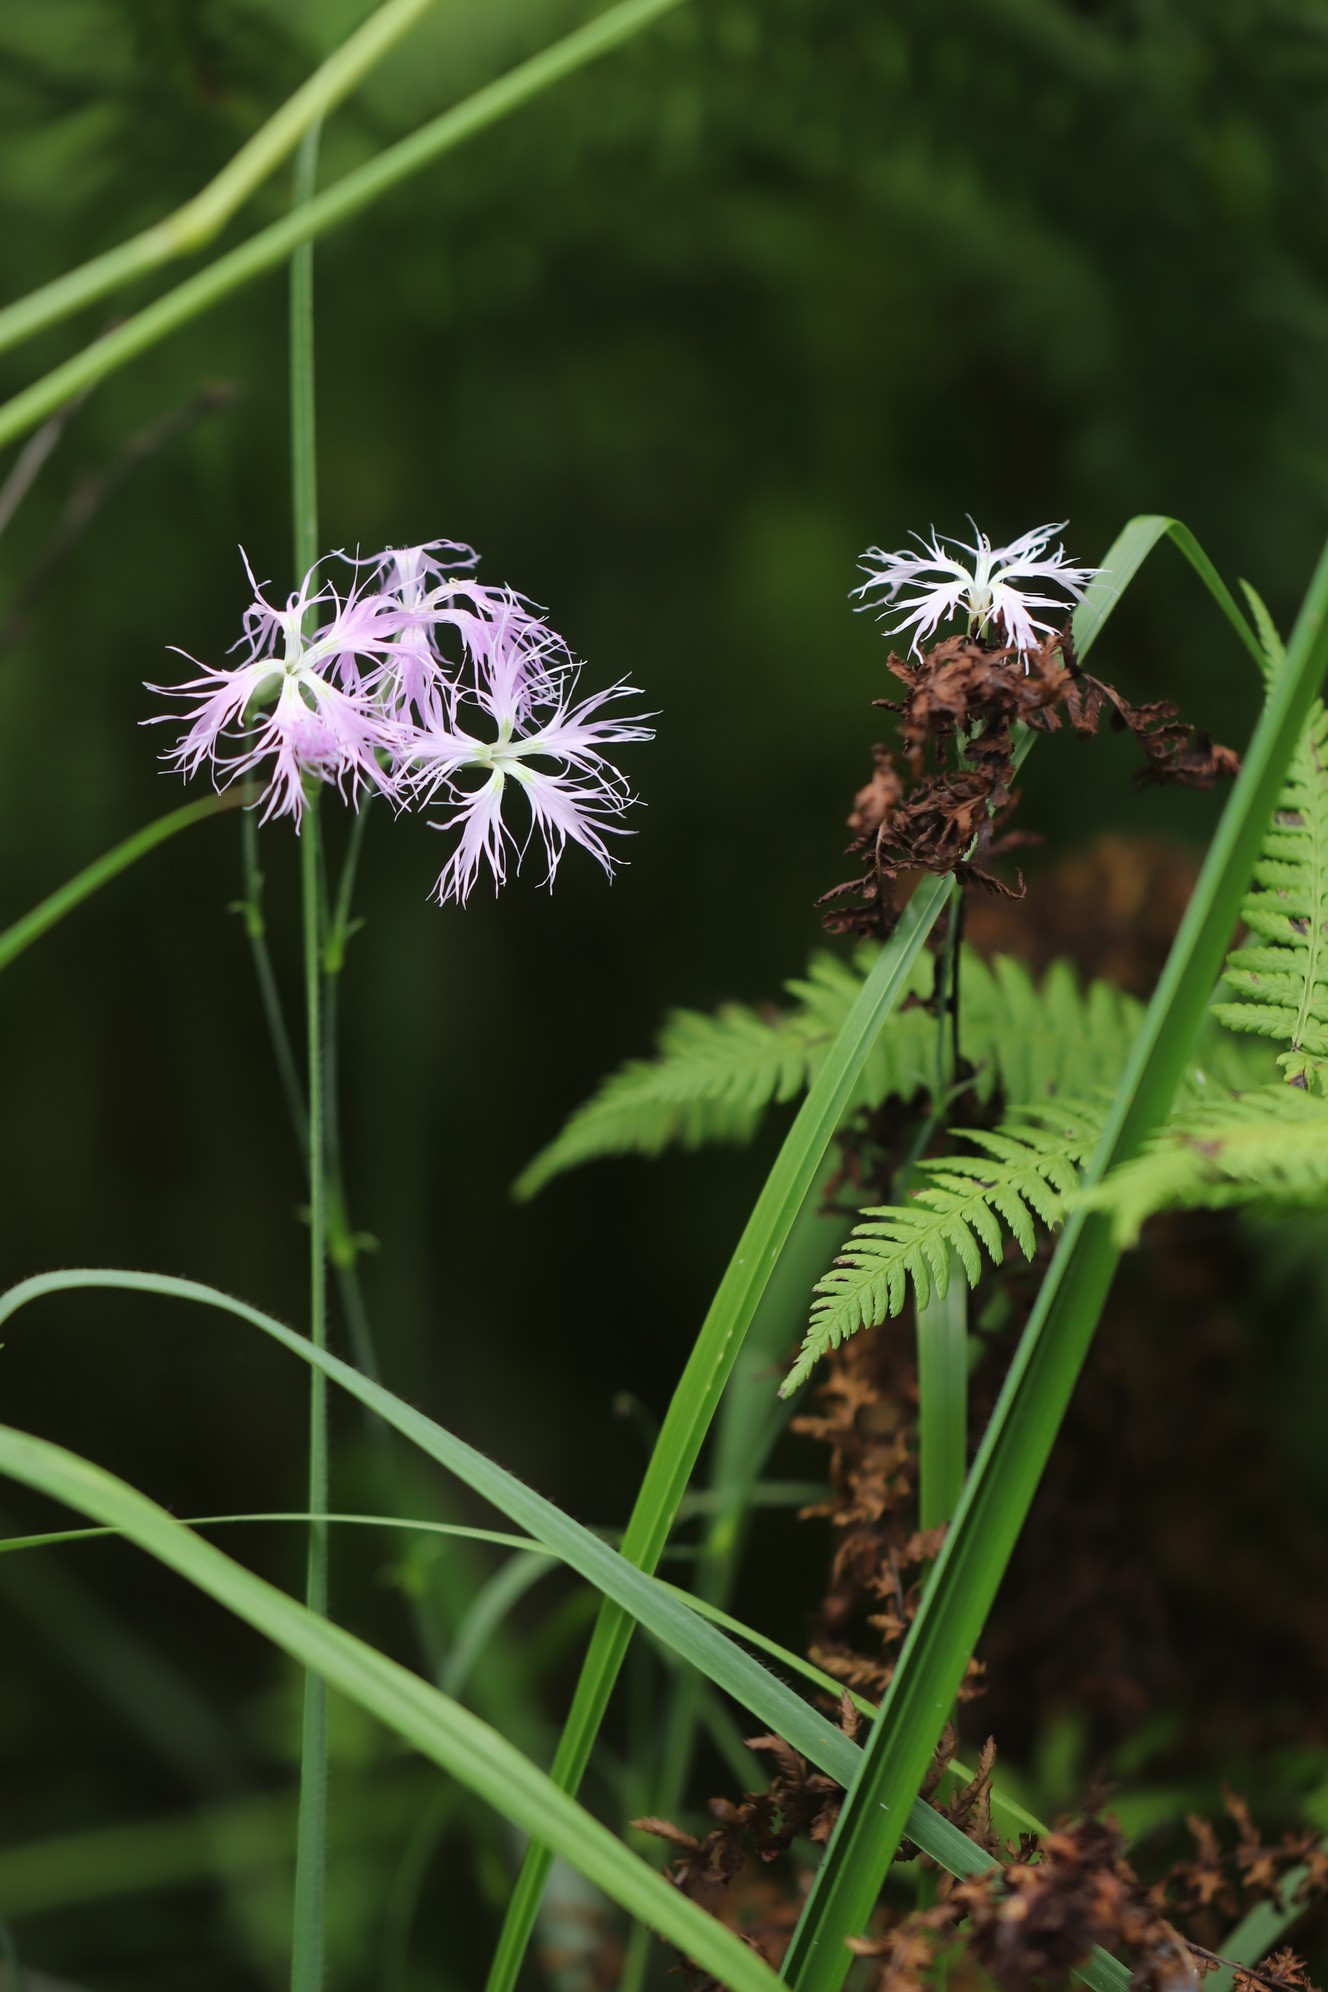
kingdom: Plantae
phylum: Tracheophyta
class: Magnoliopsida
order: Caryophyllales
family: Caryophyllaceae
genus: Dianthus
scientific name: Dianthus superbus
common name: Fringed pink
